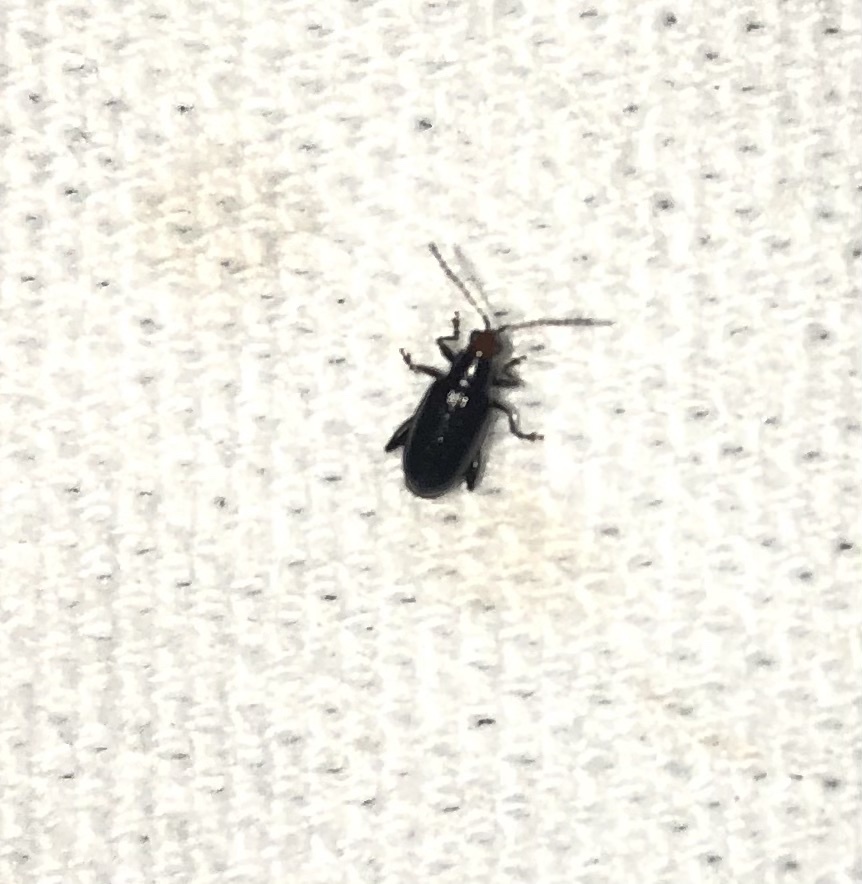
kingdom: Animalia
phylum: Arthropoda
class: Insecta
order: Coleoptera
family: Chrysomelidae
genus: Systena
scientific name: Systena frontalis
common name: Red-headed flea beetle
